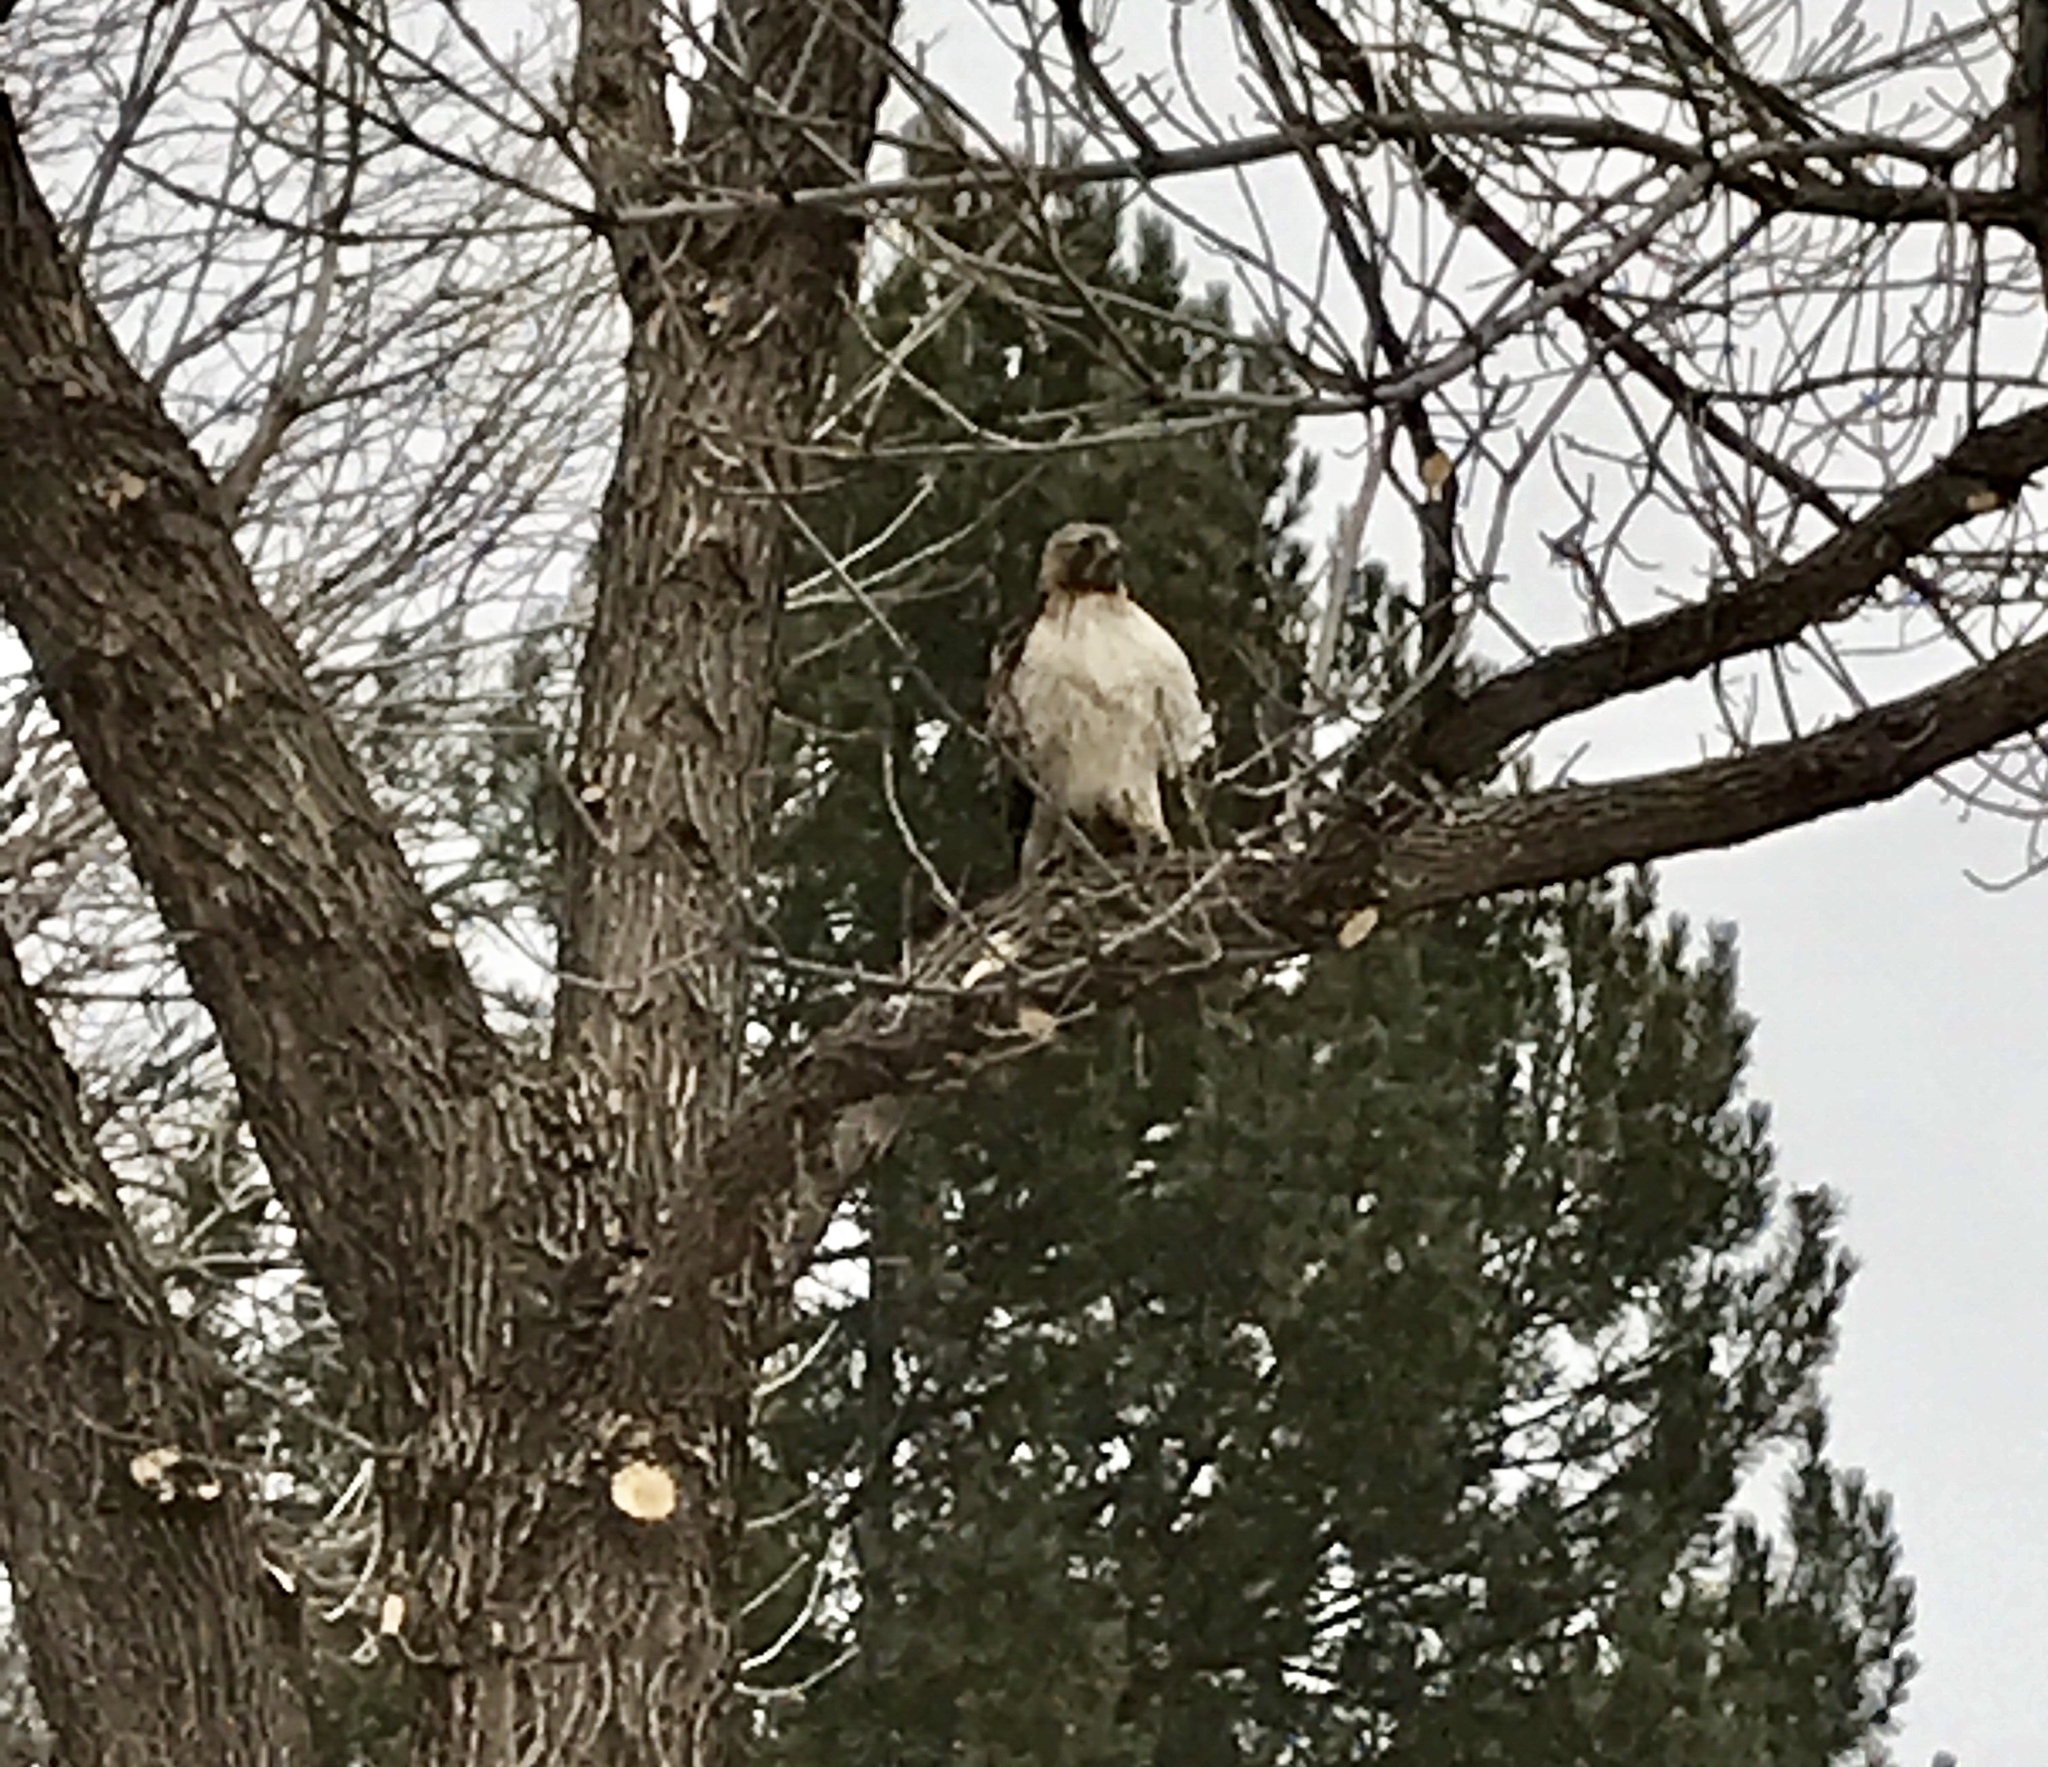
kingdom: Animalia
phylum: Chordata
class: Aves
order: Accipitriformes
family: Accipitridae
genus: Buteo
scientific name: Buteo jamaicensis
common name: Red-tailed hawk
